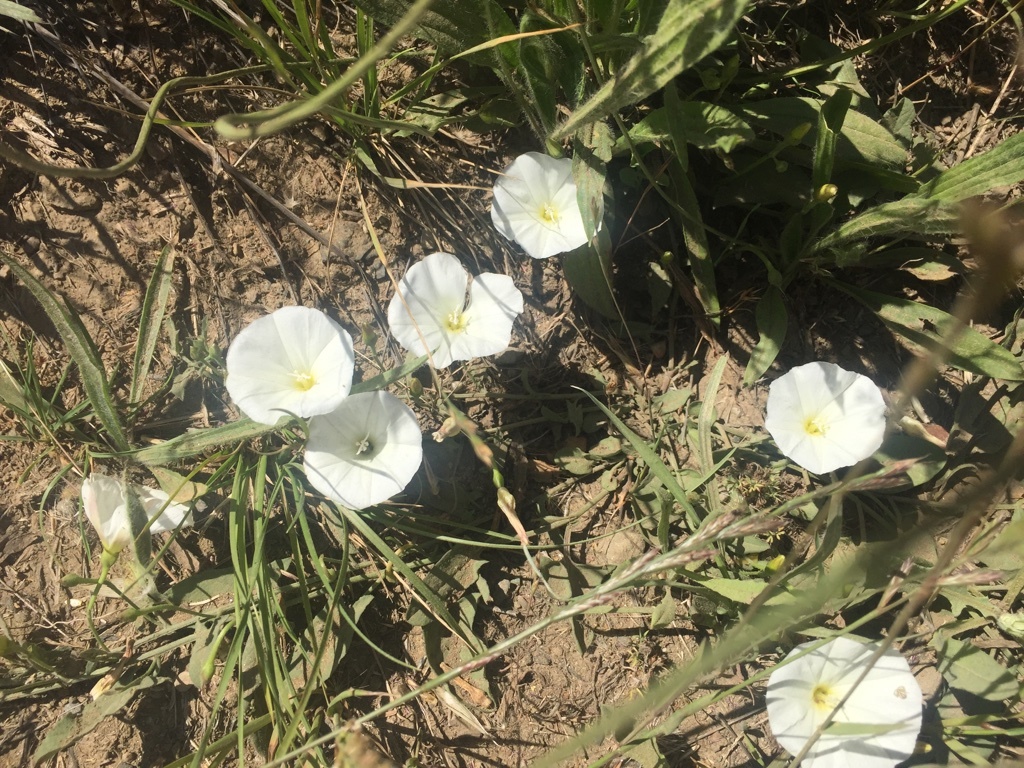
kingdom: Plantae
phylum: Tracheophyta
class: Magnoliopsida
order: Solanales
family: Convolvulaceae
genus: Convolvulus
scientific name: Convolvulus arvensis
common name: Field bindweed
